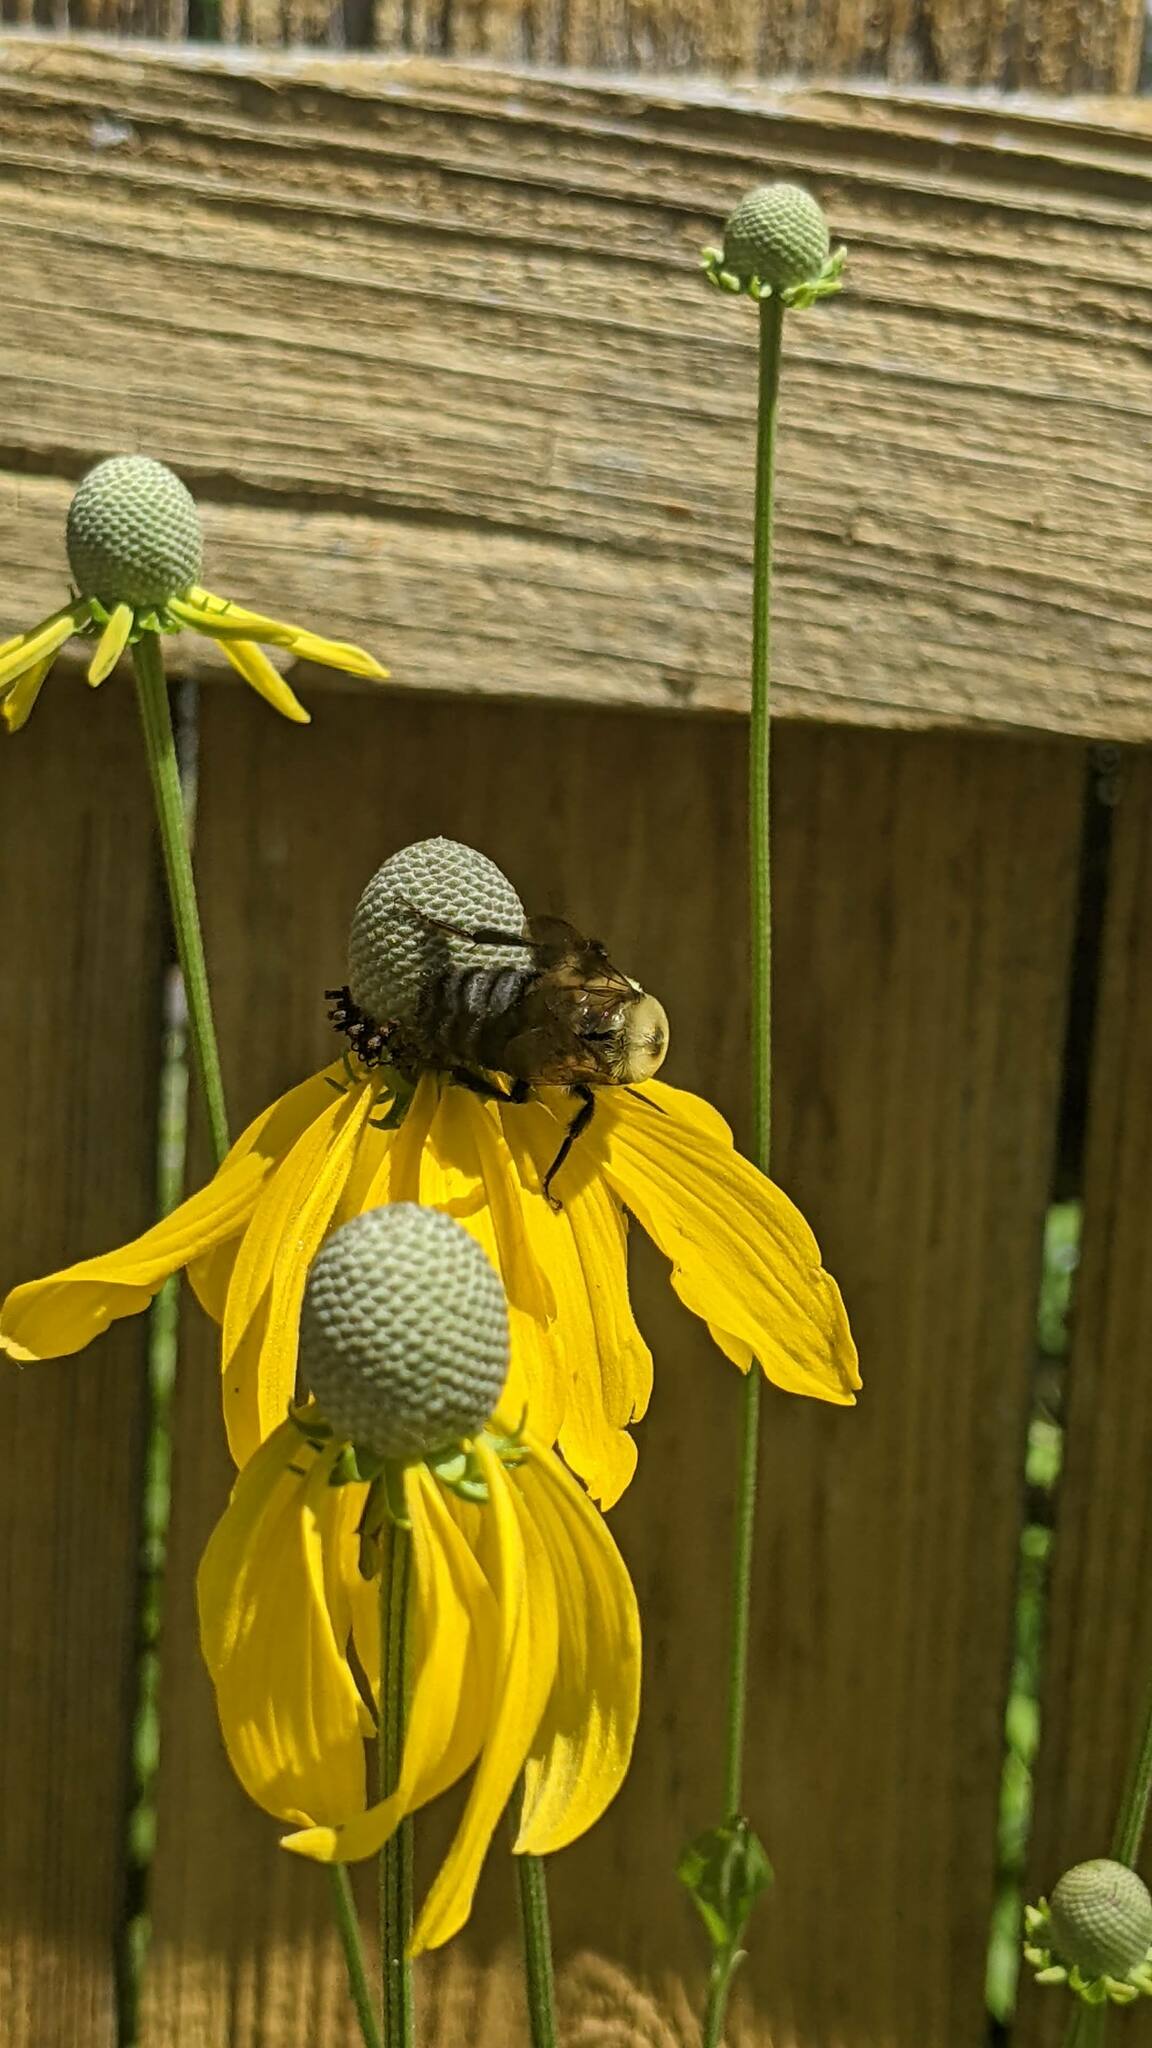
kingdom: Animalia
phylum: Arthropoda
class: Insecta
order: Hymenoptera
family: Apidae
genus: Bombus
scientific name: Bombus griseocollis
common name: Brown-belted bumble bee
